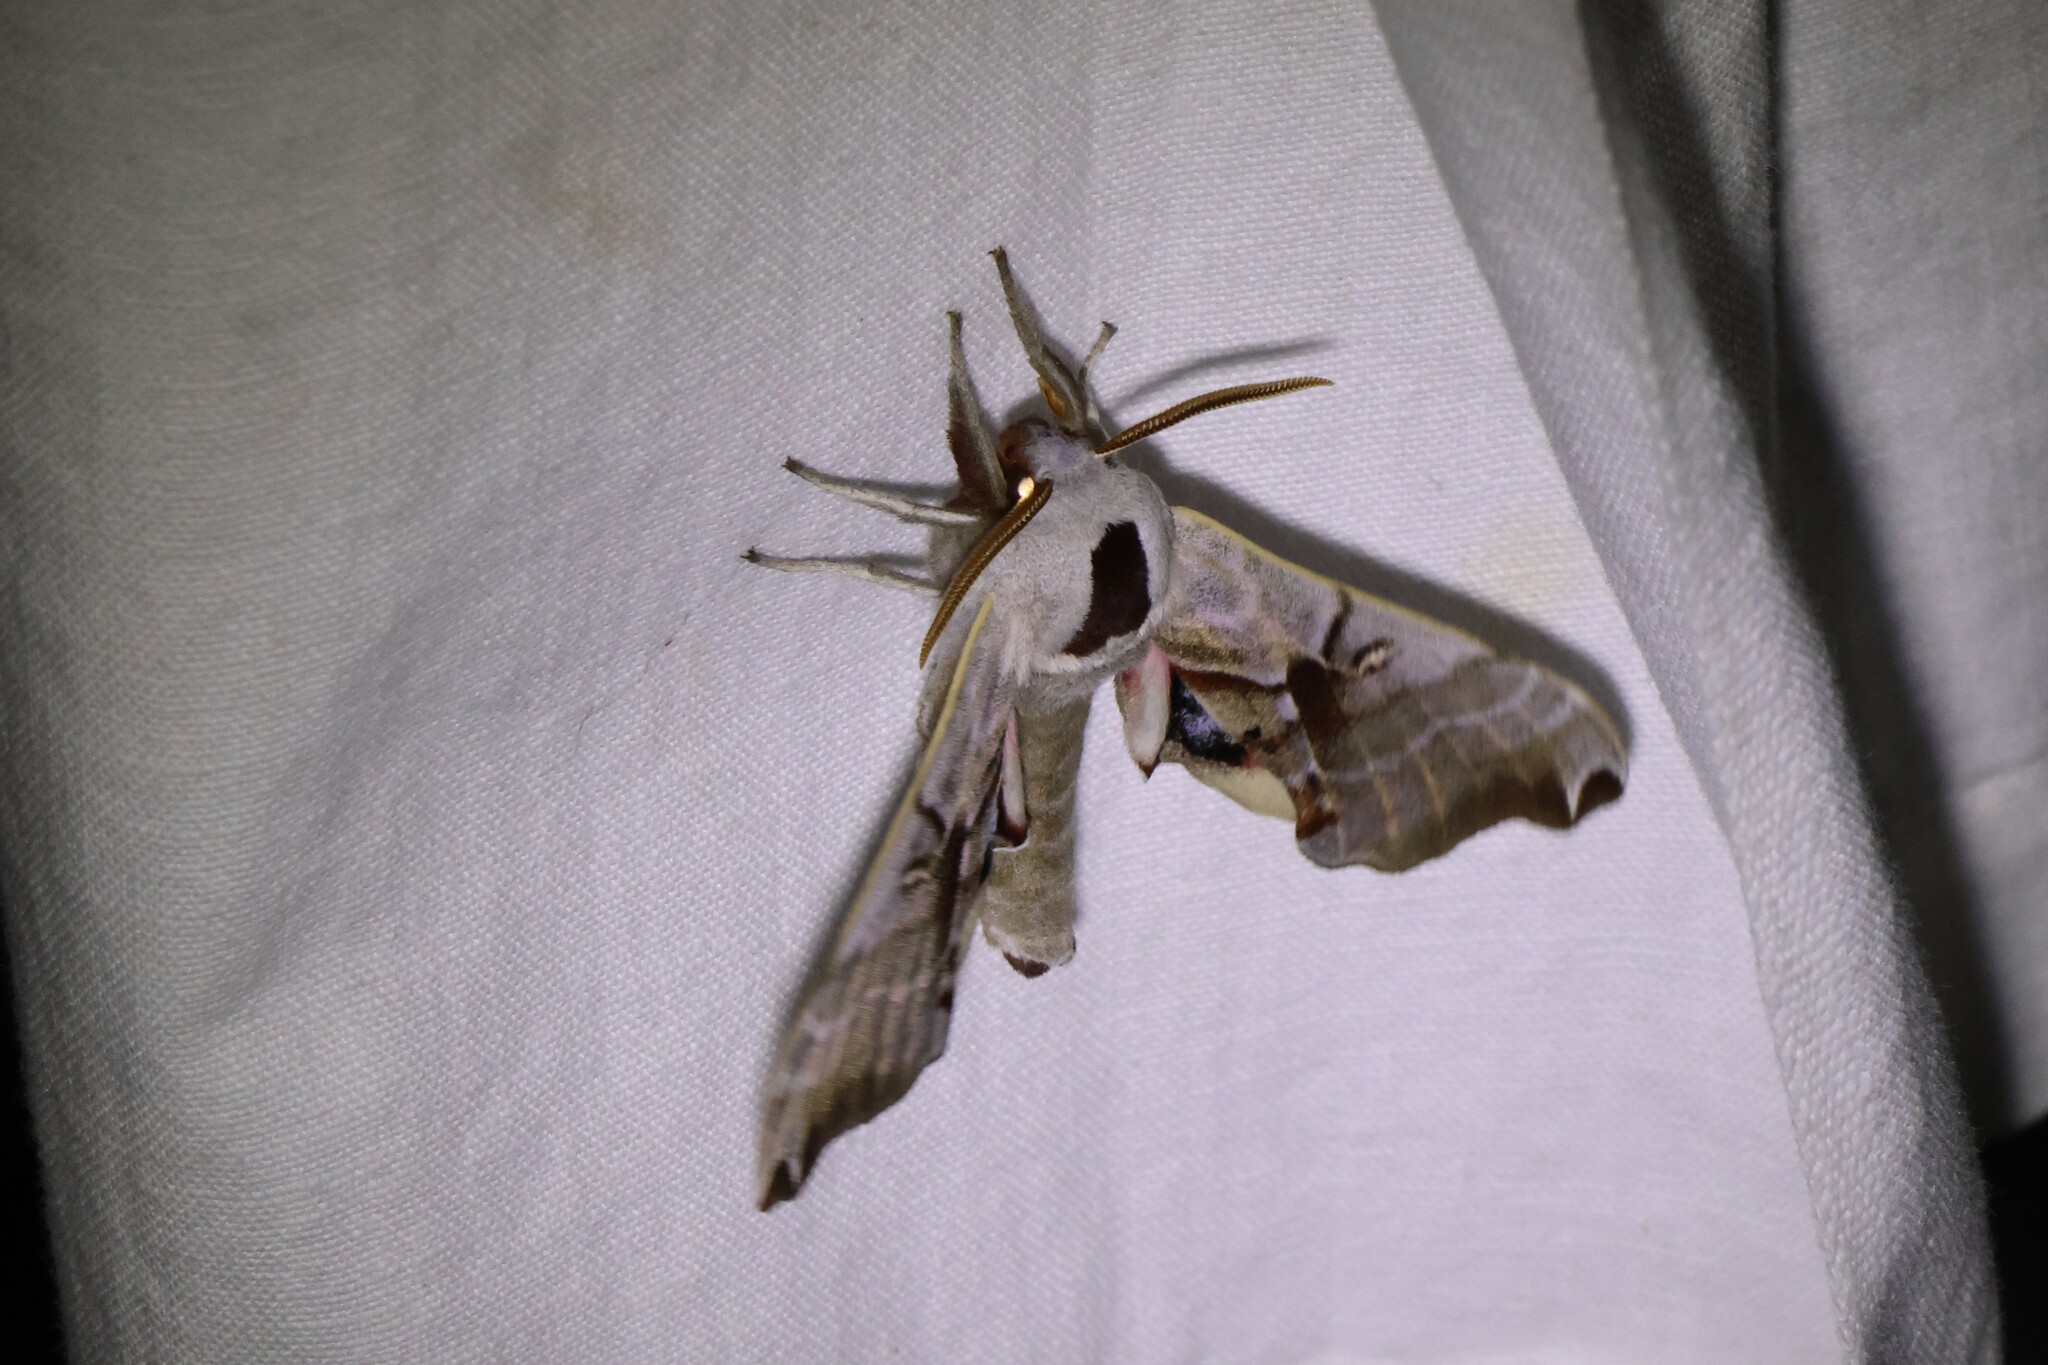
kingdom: Animalia
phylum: Arthropoda
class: Insecta
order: Lepidoptera
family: Sphingidae
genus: Smerinthus
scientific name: Smerinthus jamaicensis
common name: Twin spotted sphinx
